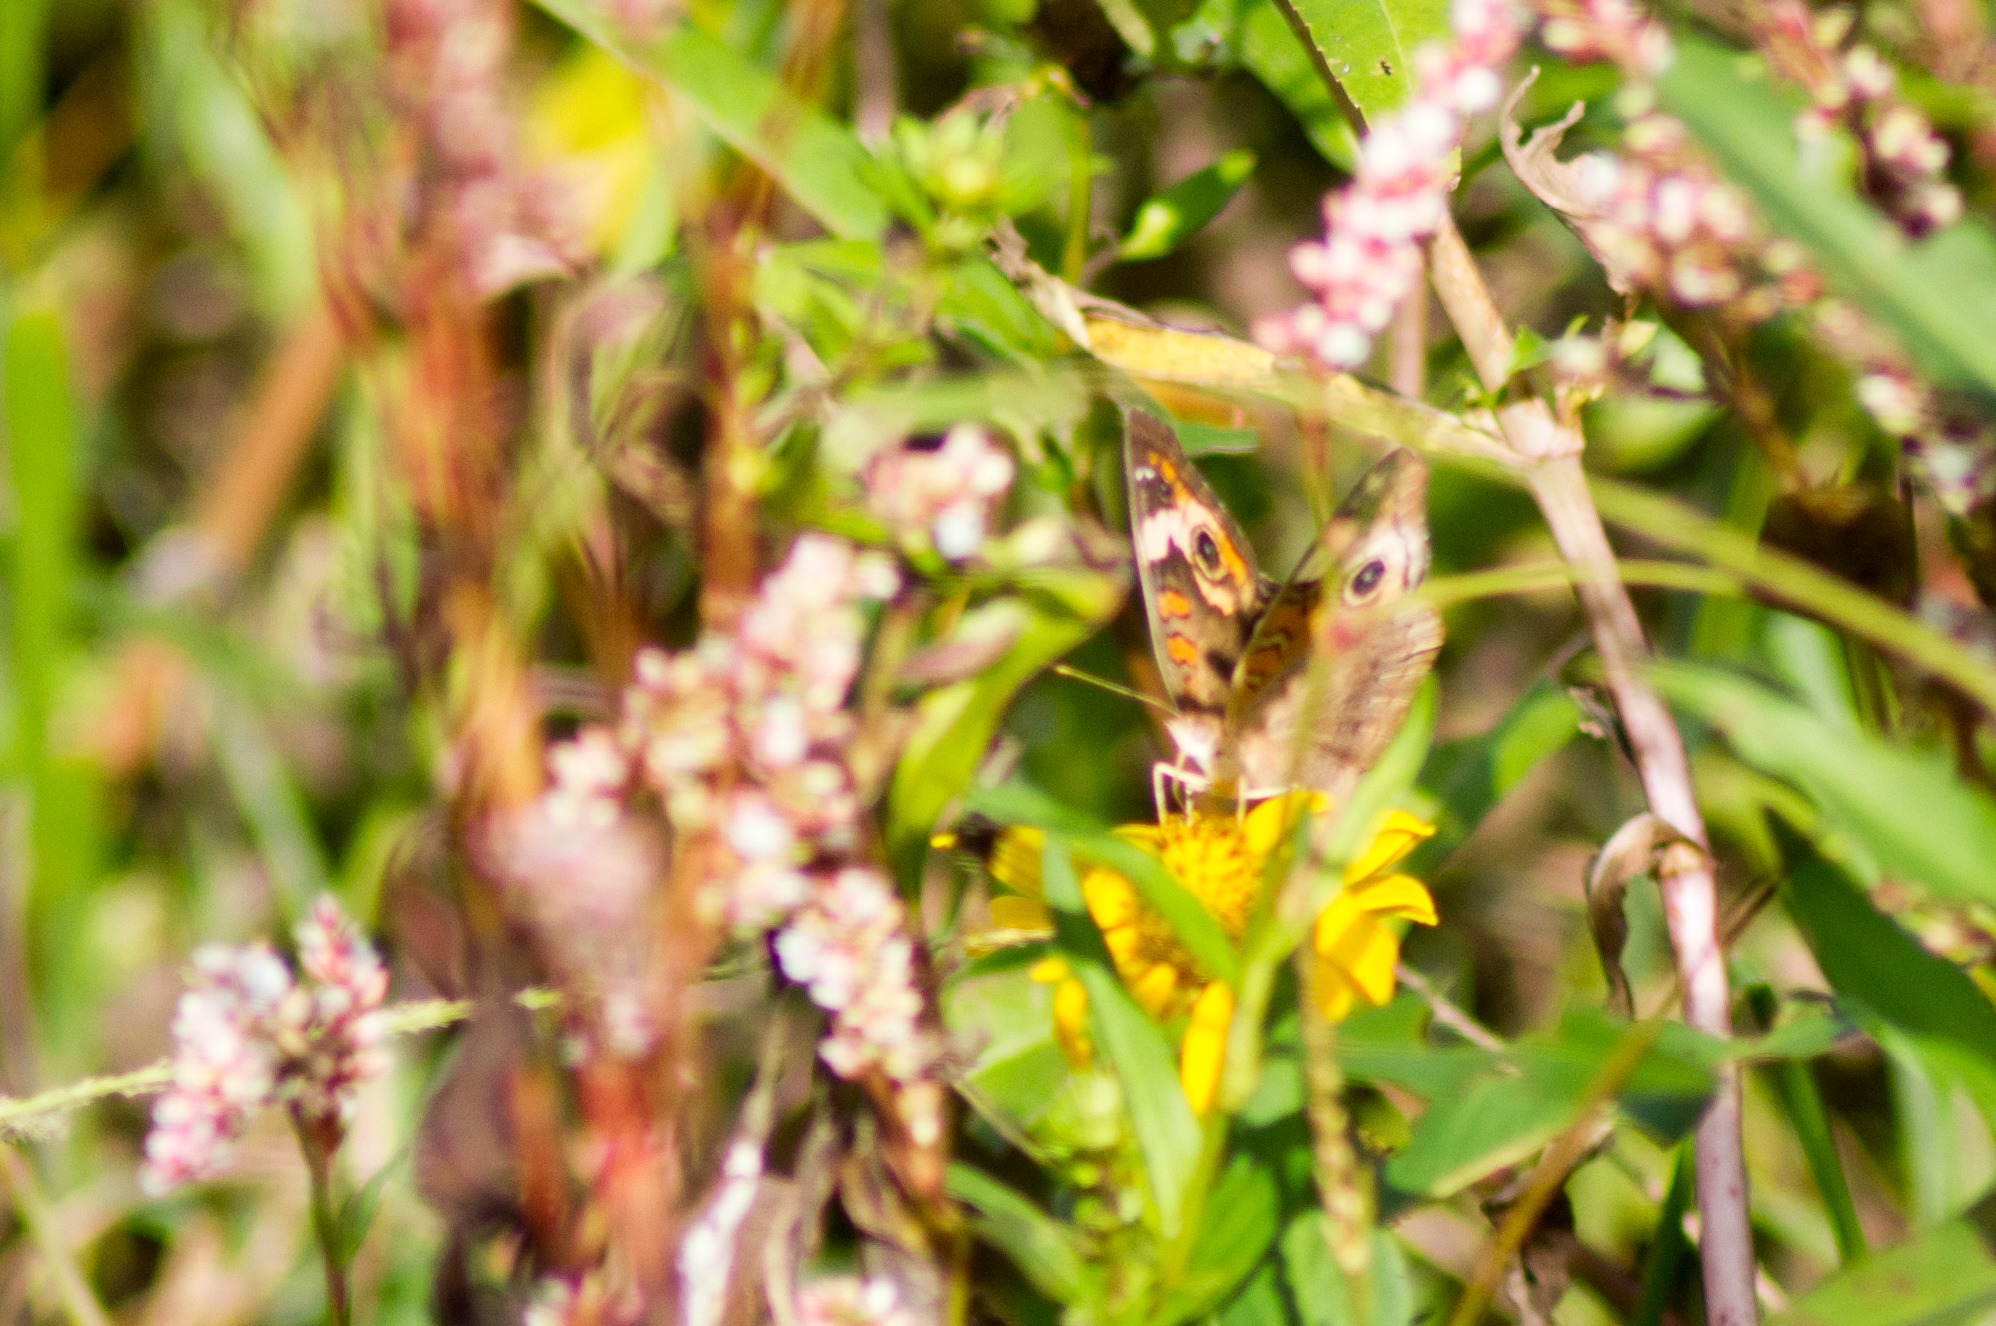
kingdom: Animalia
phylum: Arthropoda
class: Insecta
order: Lepidoptera
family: Nymphalidae
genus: Junonia
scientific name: Junonia coenia
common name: Common buckeye
